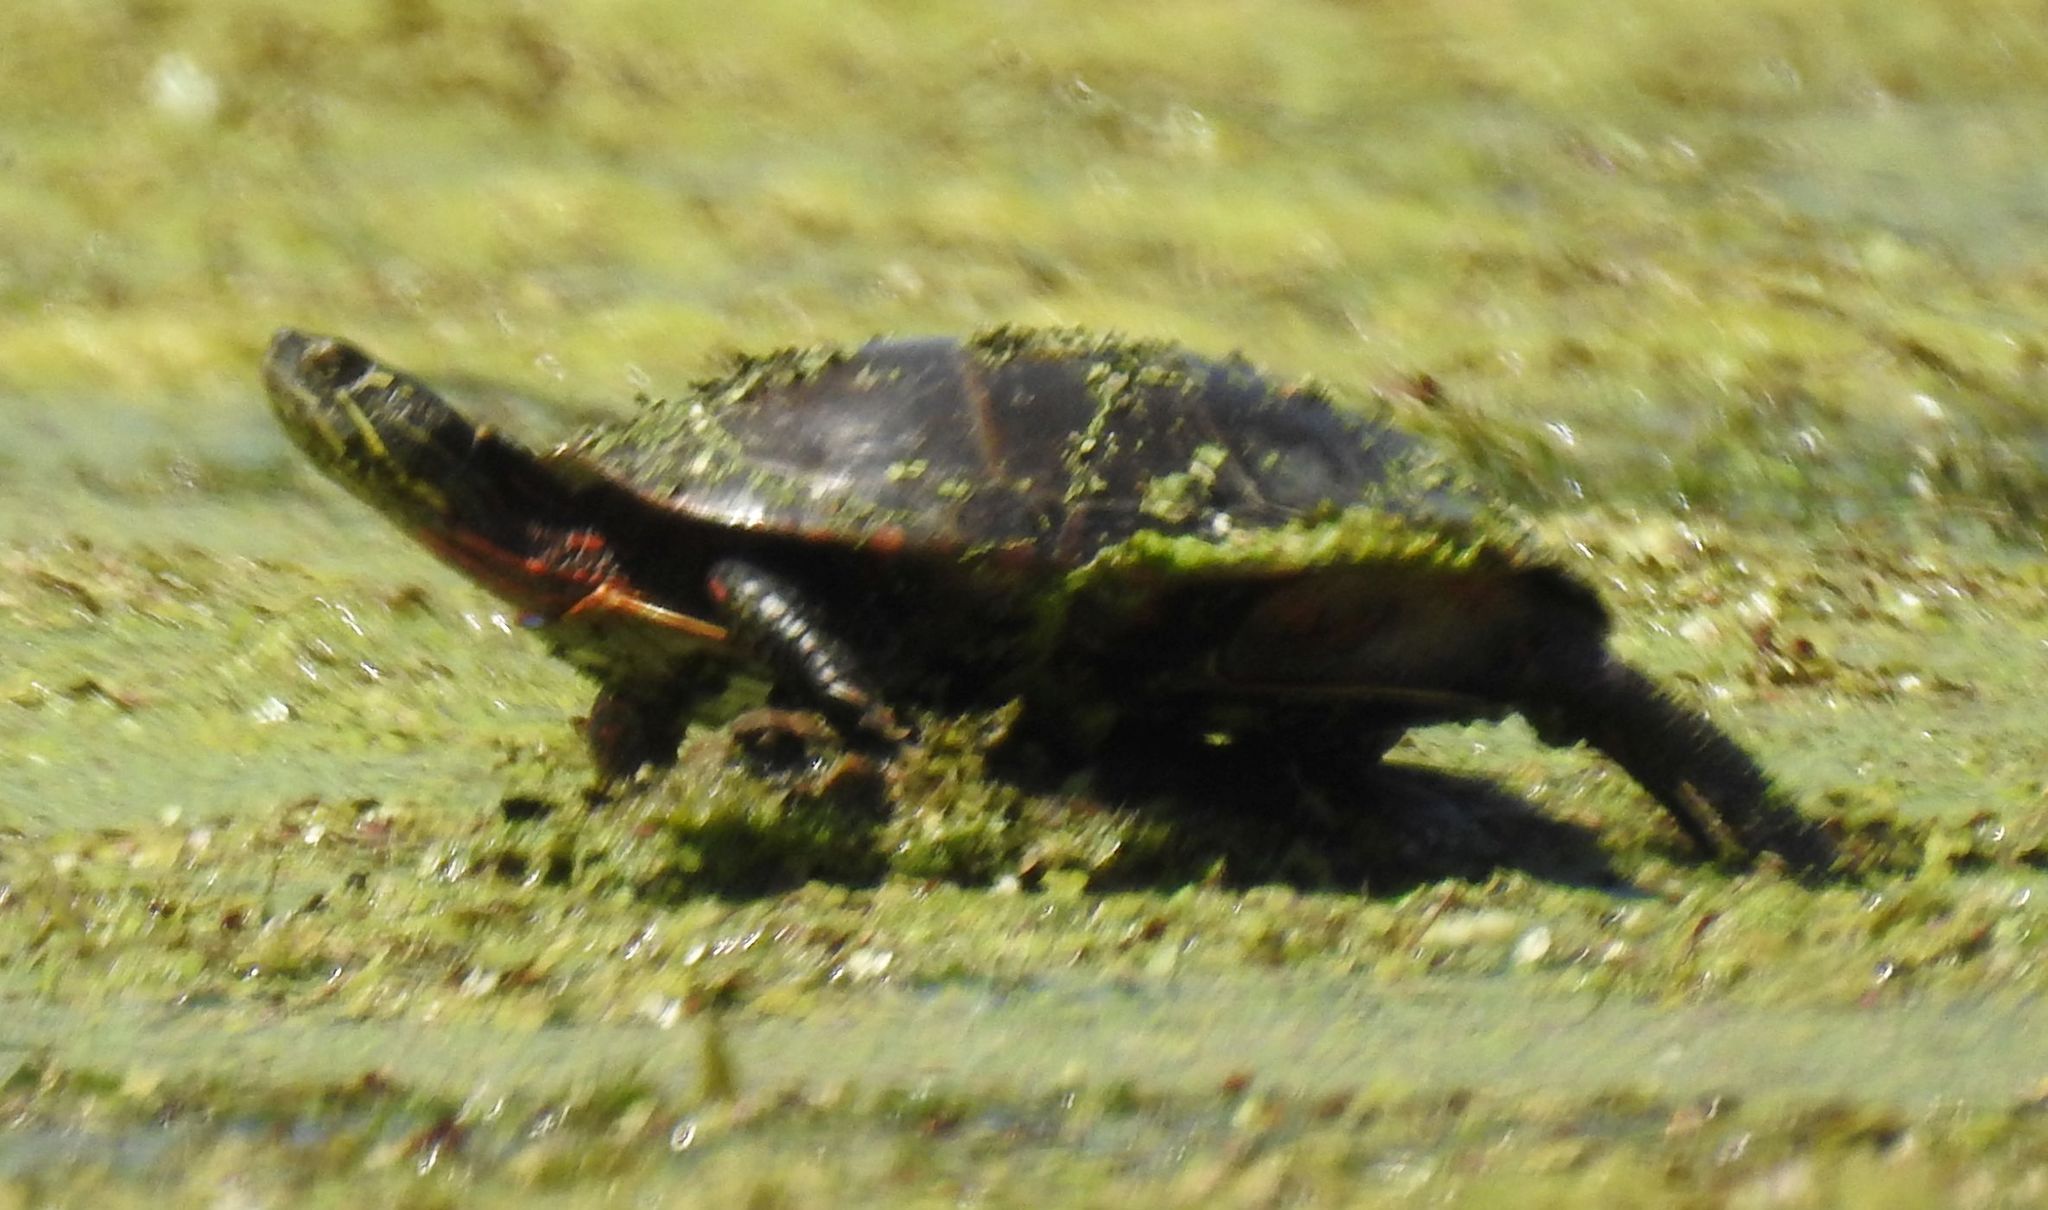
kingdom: Animalia
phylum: Chordata
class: Testudines
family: Emydidae
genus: Chrysemys
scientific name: Chrysemys picta
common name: Painted turtle
